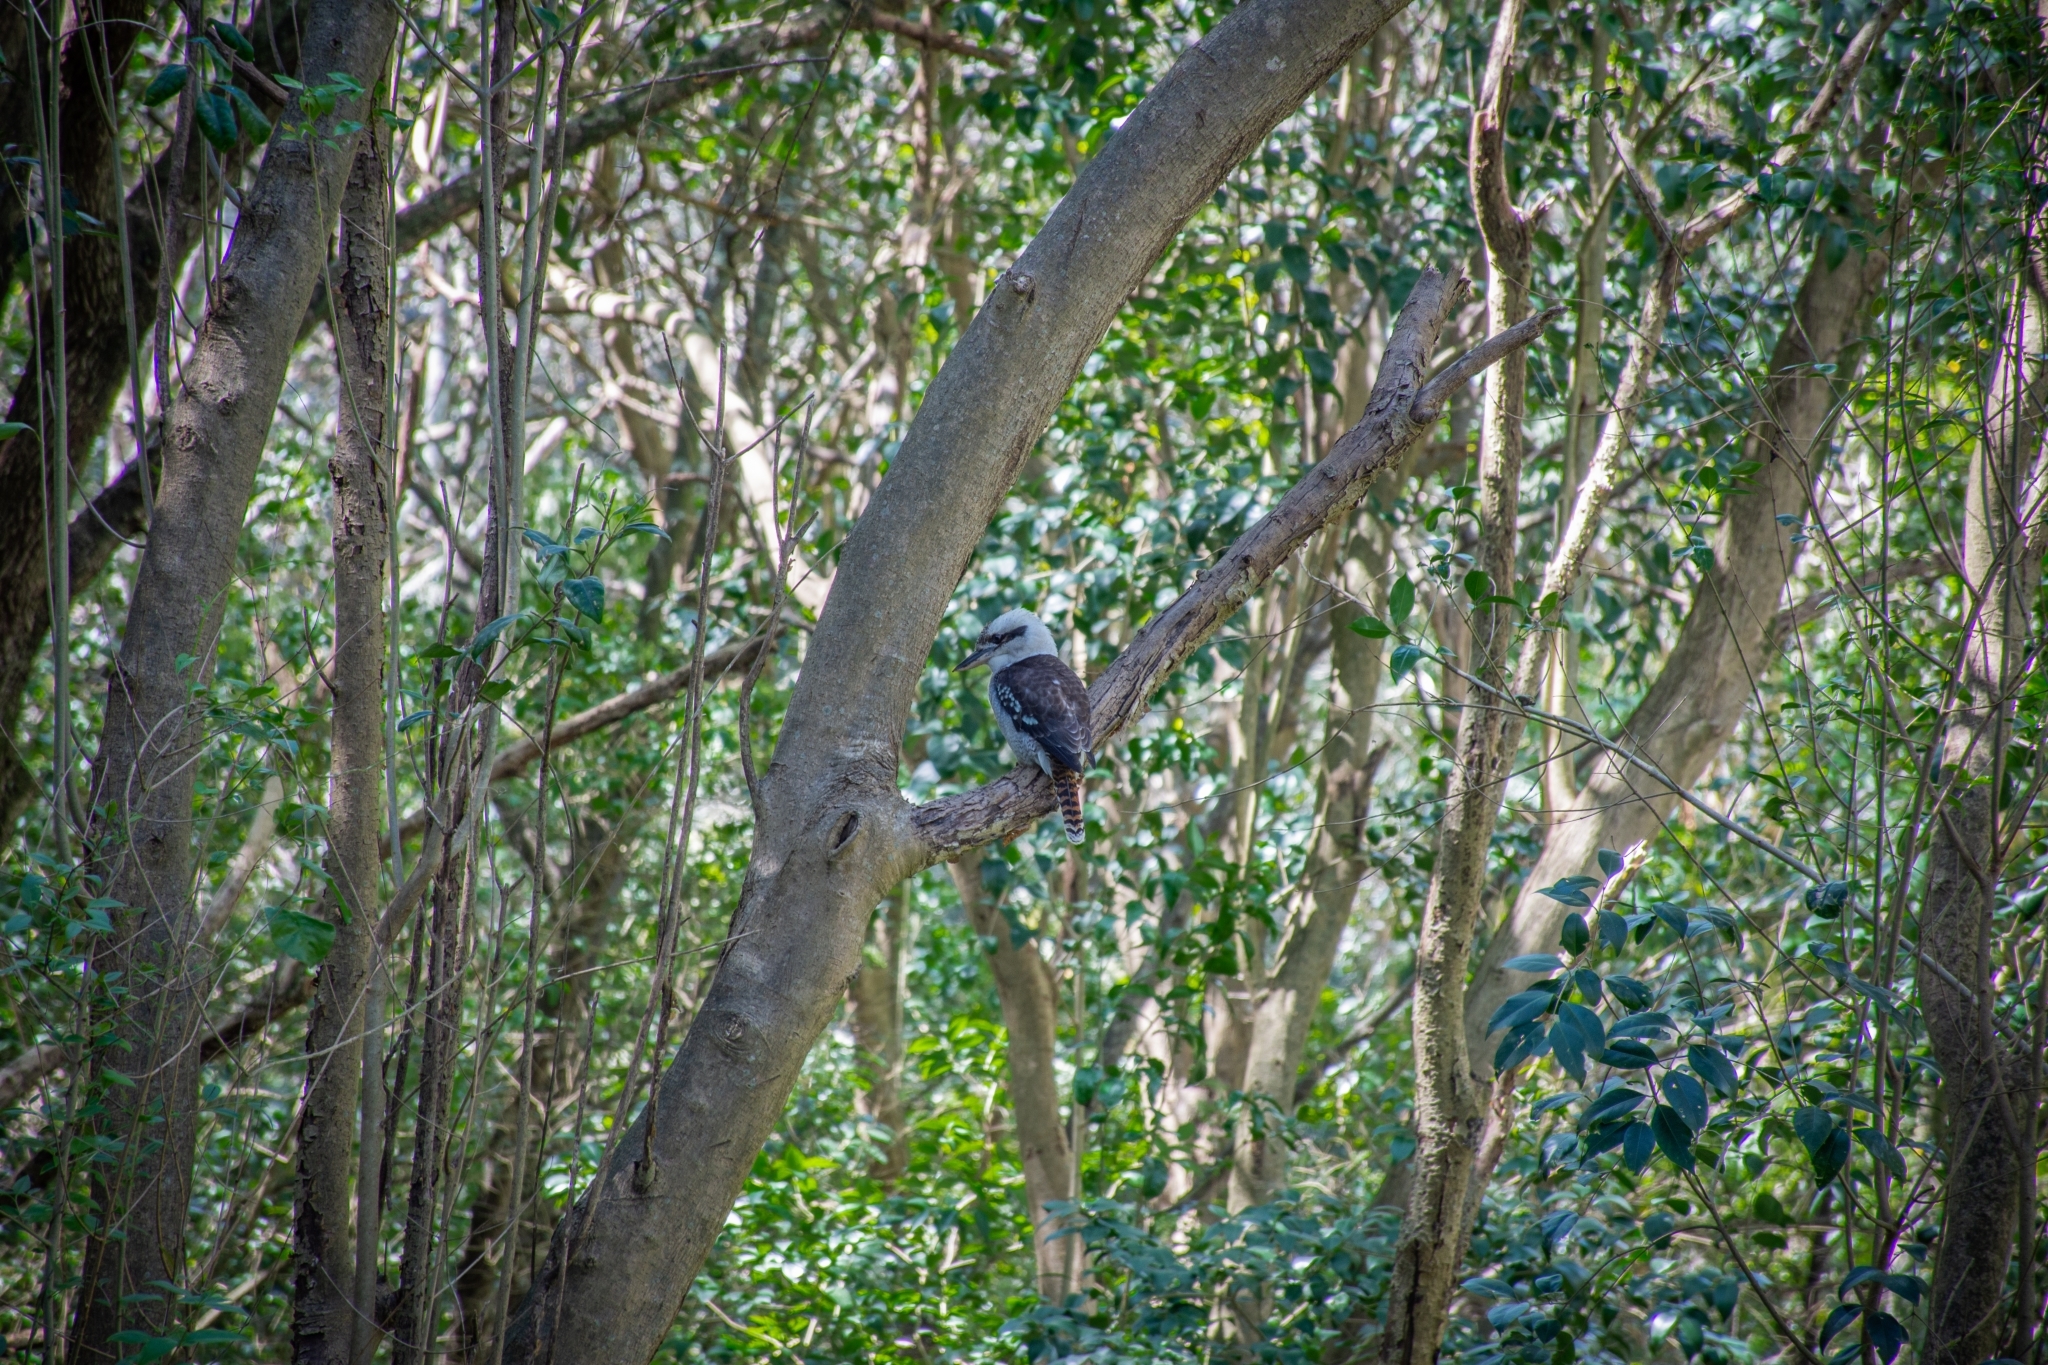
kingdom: Animalia
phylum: Chordata
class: Aves
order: Coraciiformes
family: Alcedinidae
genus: Dacelo
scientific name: Dacelo novaeguineae
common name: Laughing kookaburra
